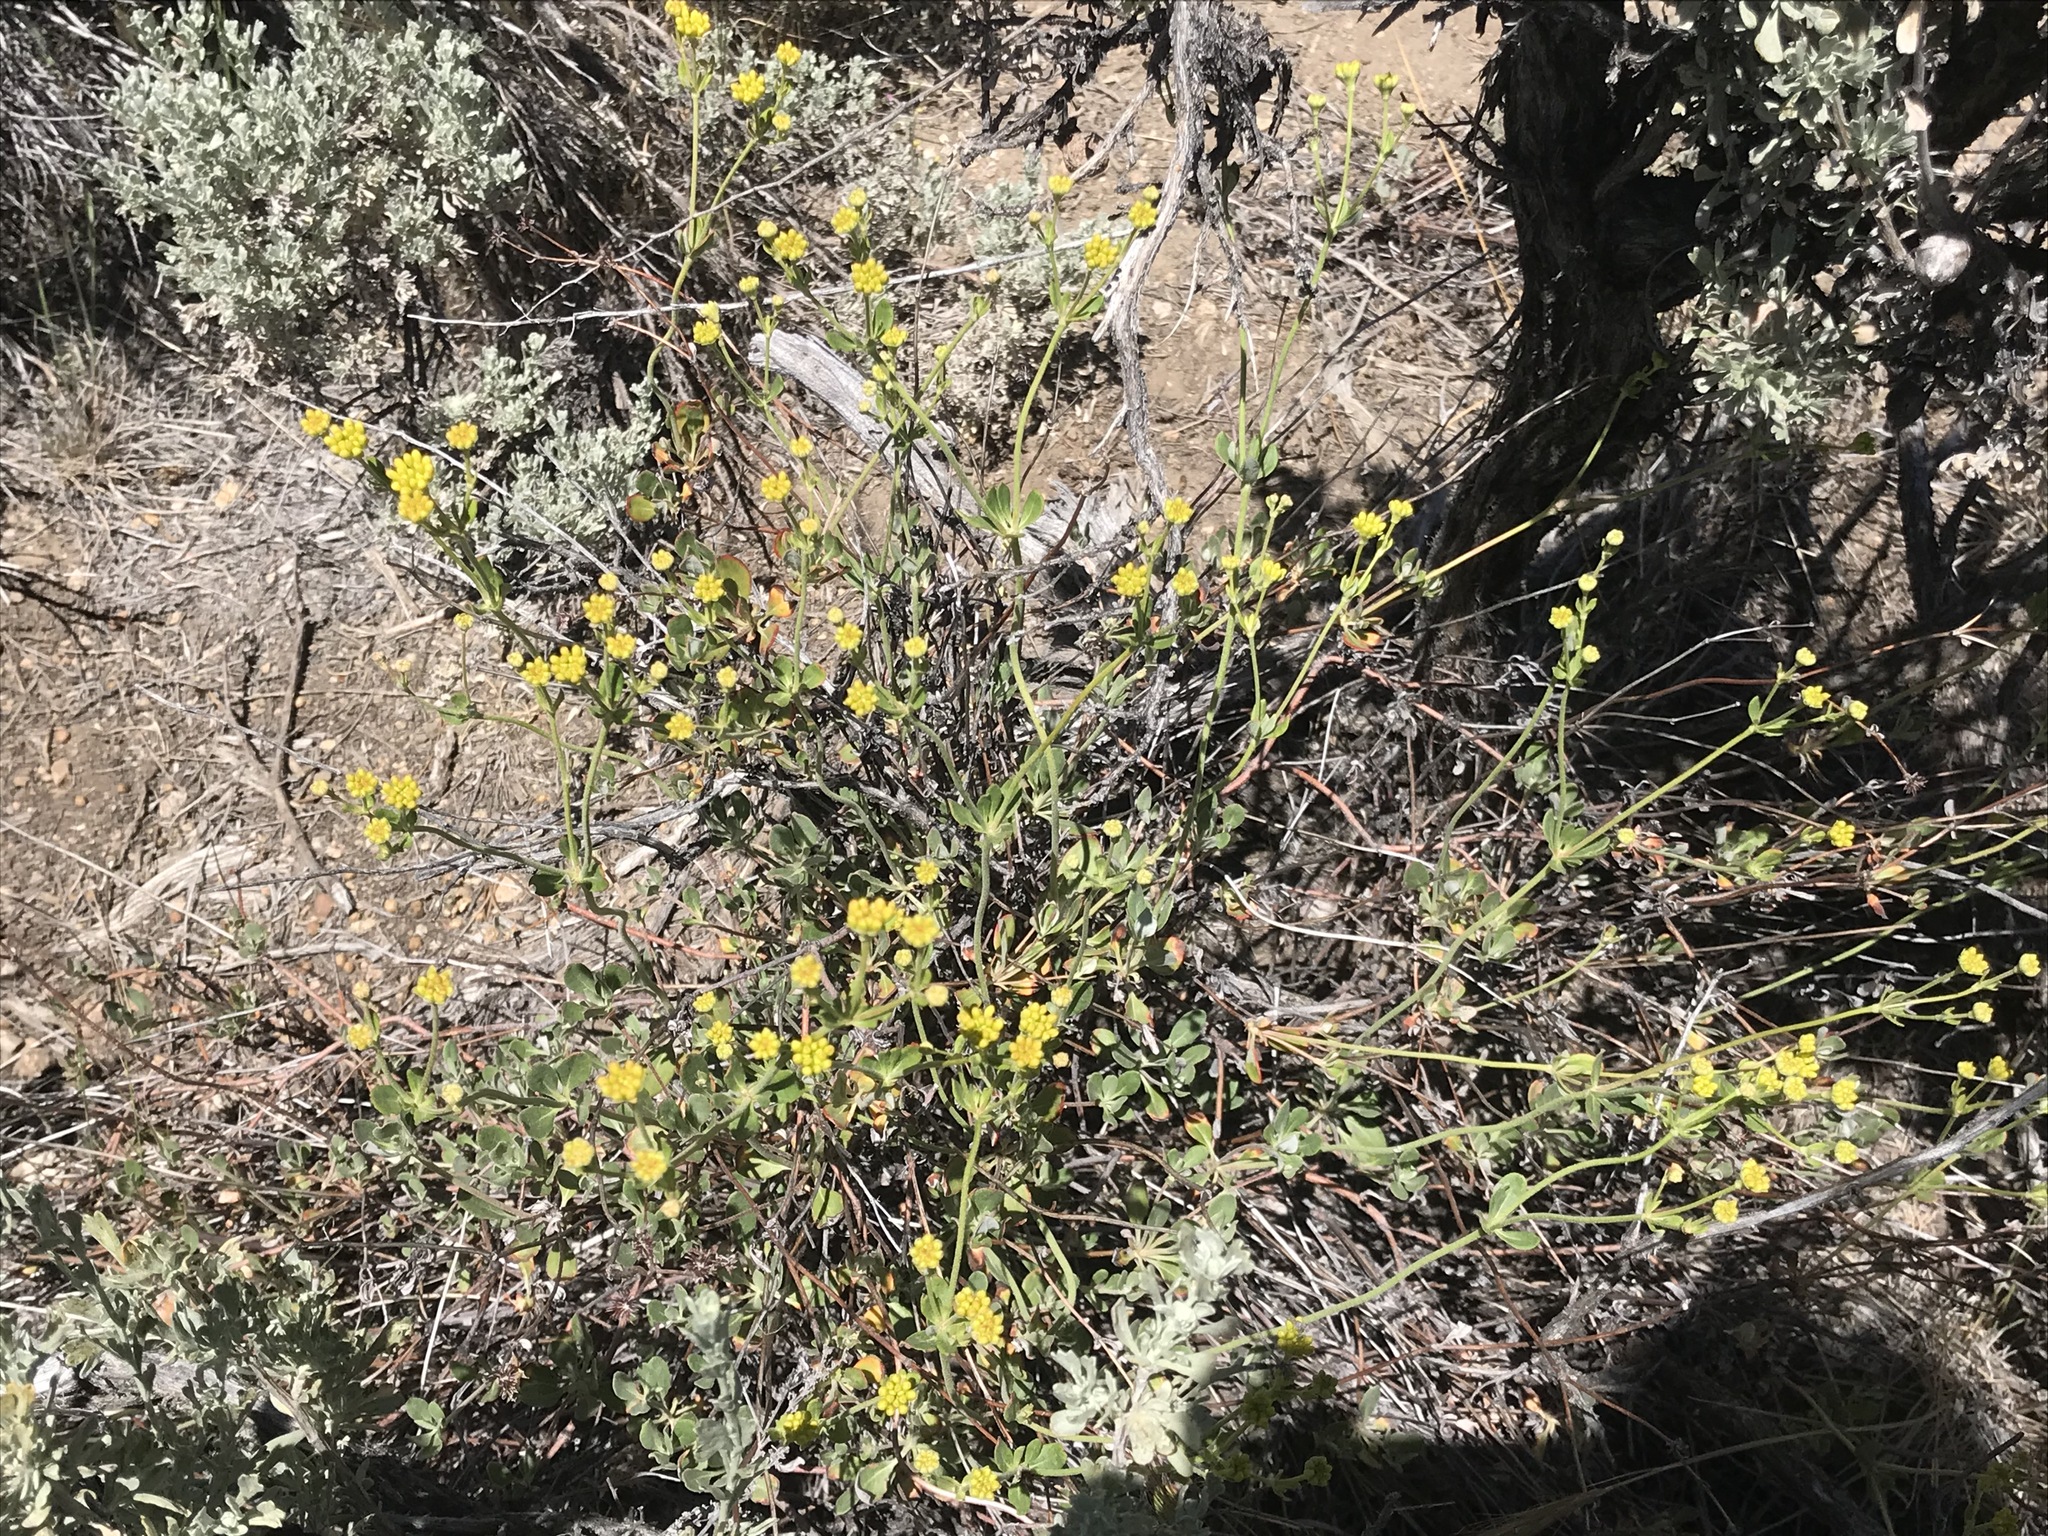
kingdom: Plantae
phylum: Tracheophyta
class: Magnoliopsida
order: Caryophyllales
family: Polygonaceae
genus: Eriogonum
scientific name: Eriogonum umbellatum
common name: Sulfur-buckwheat
